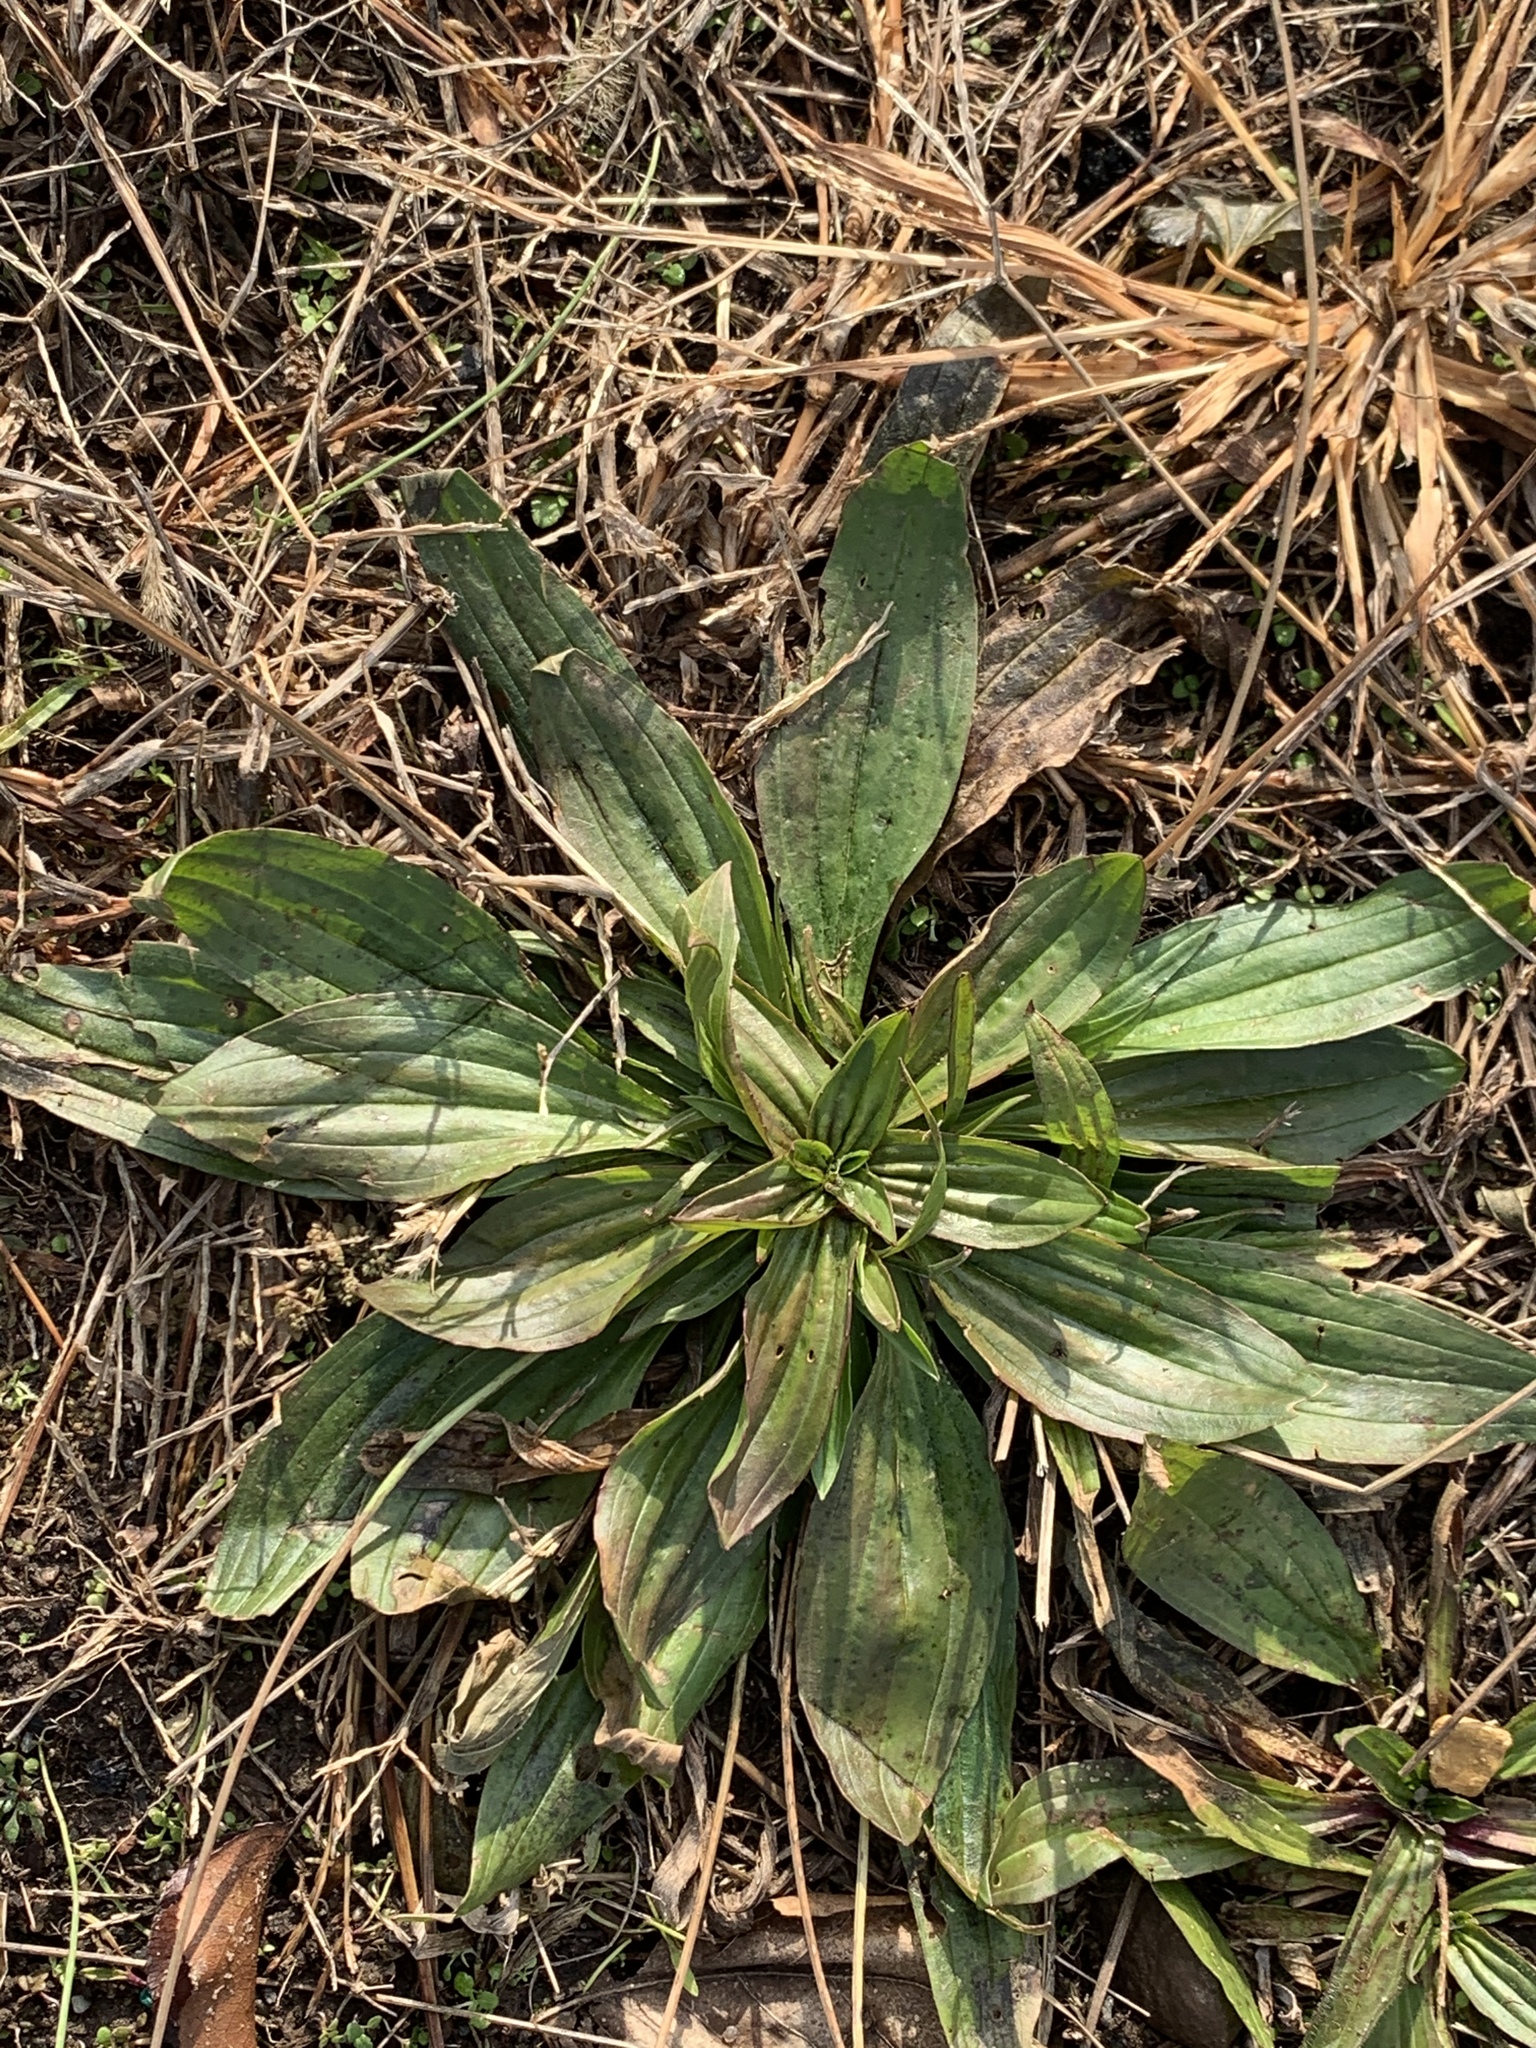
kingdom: Plantae
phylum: Tracheophyta
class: Magnoliopsida
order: Lamiales
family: Plantaginaceae
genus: Plantago
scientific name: Plantago lanceolata
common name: Ribwort plantain
